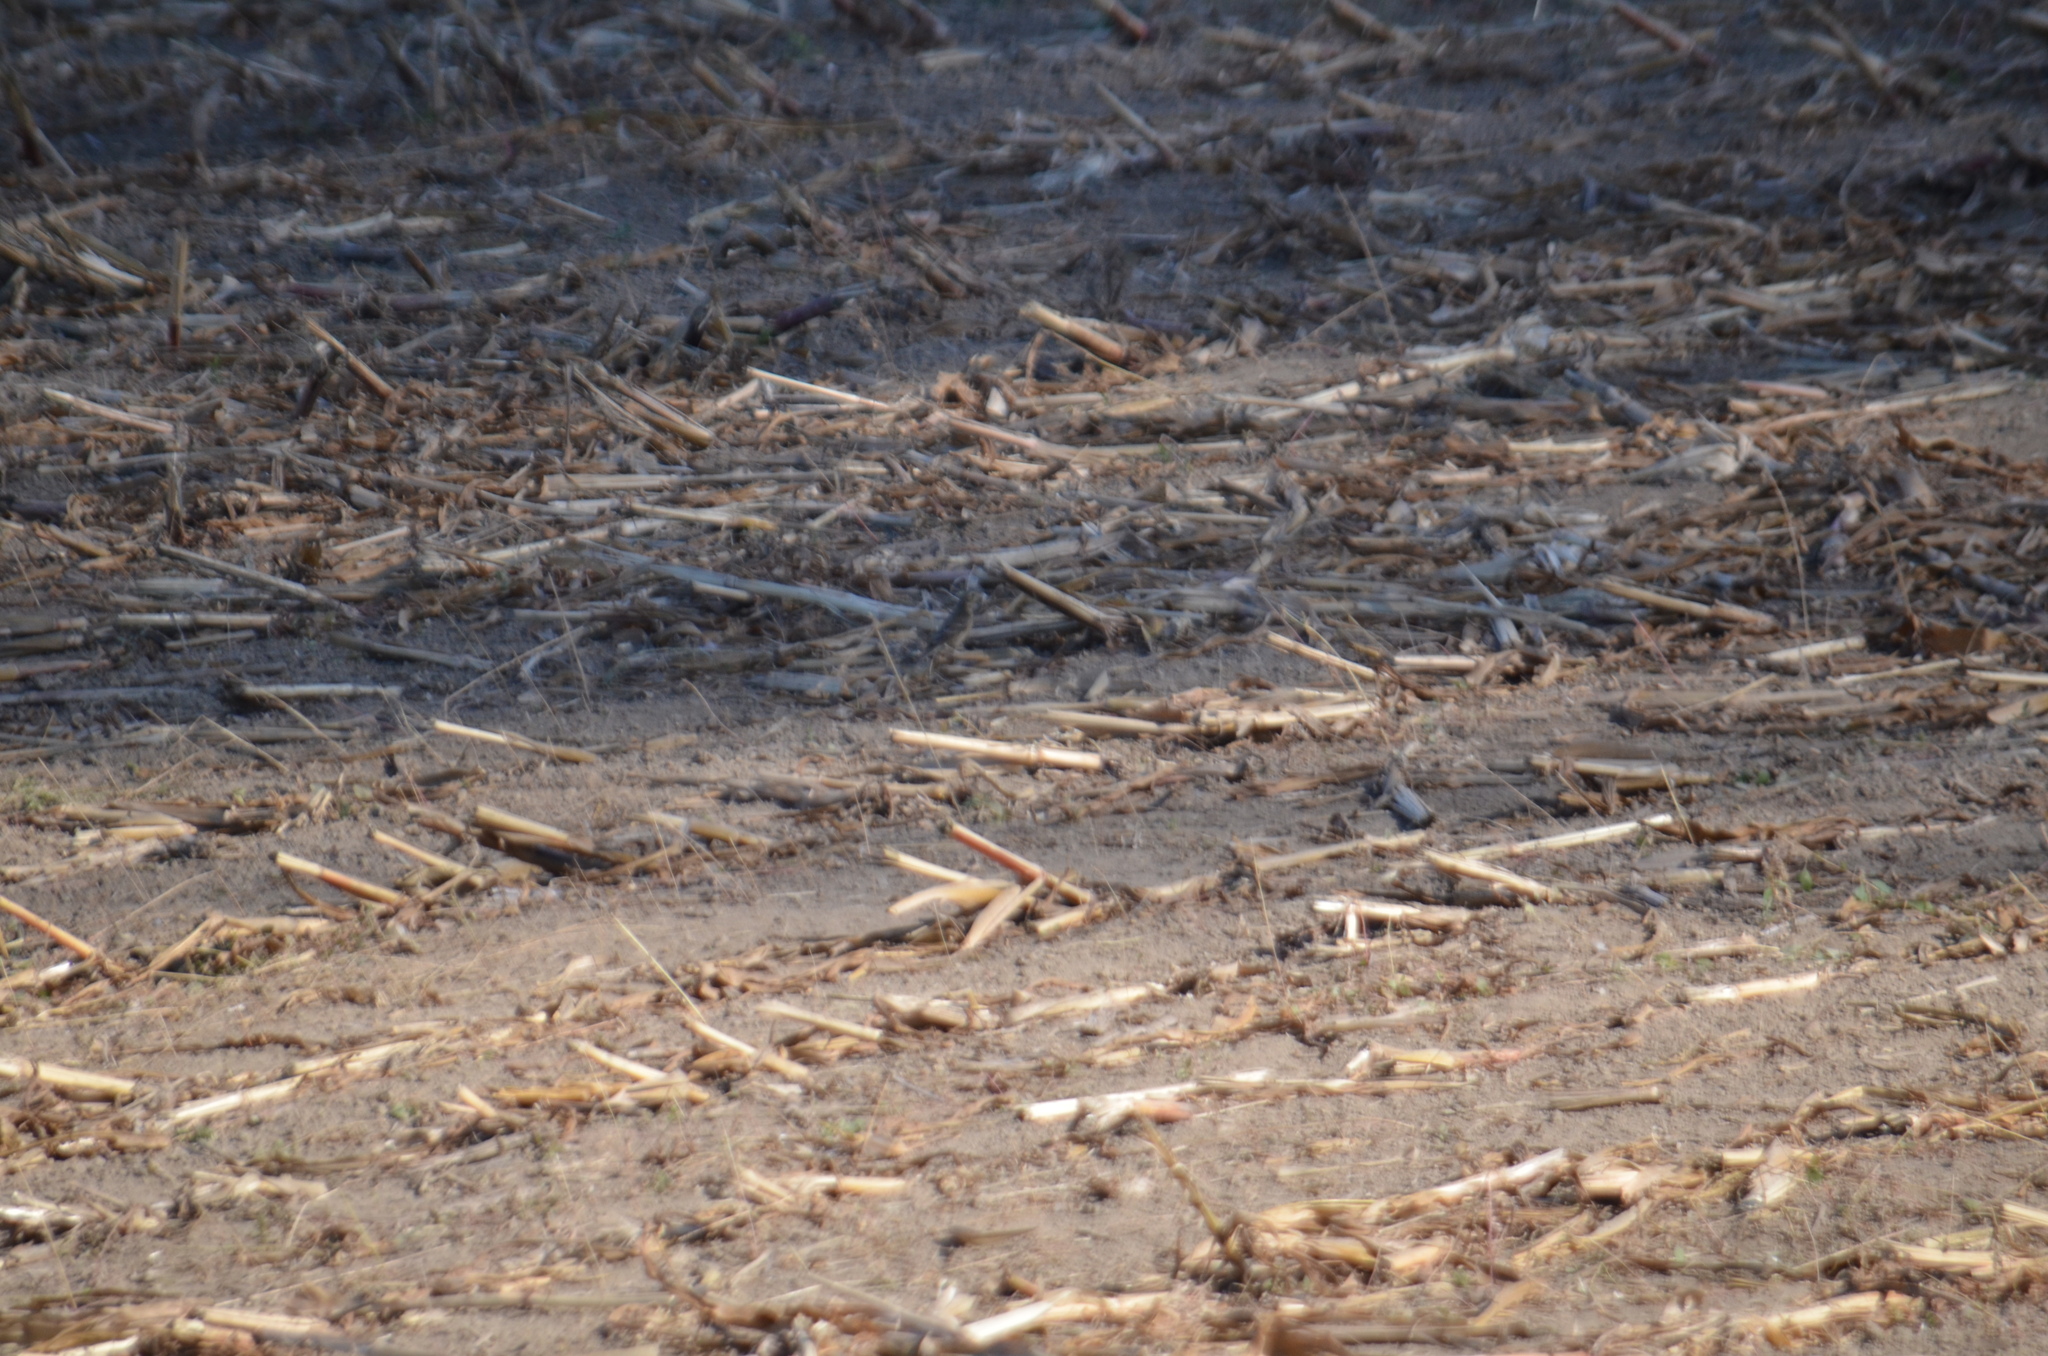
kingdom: Animalia
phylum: Chordata
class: Aves
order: Passeriformes
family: Motacillidae
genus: Anthus
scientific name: Anthus rubescens
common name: Buff-bellied pipit
